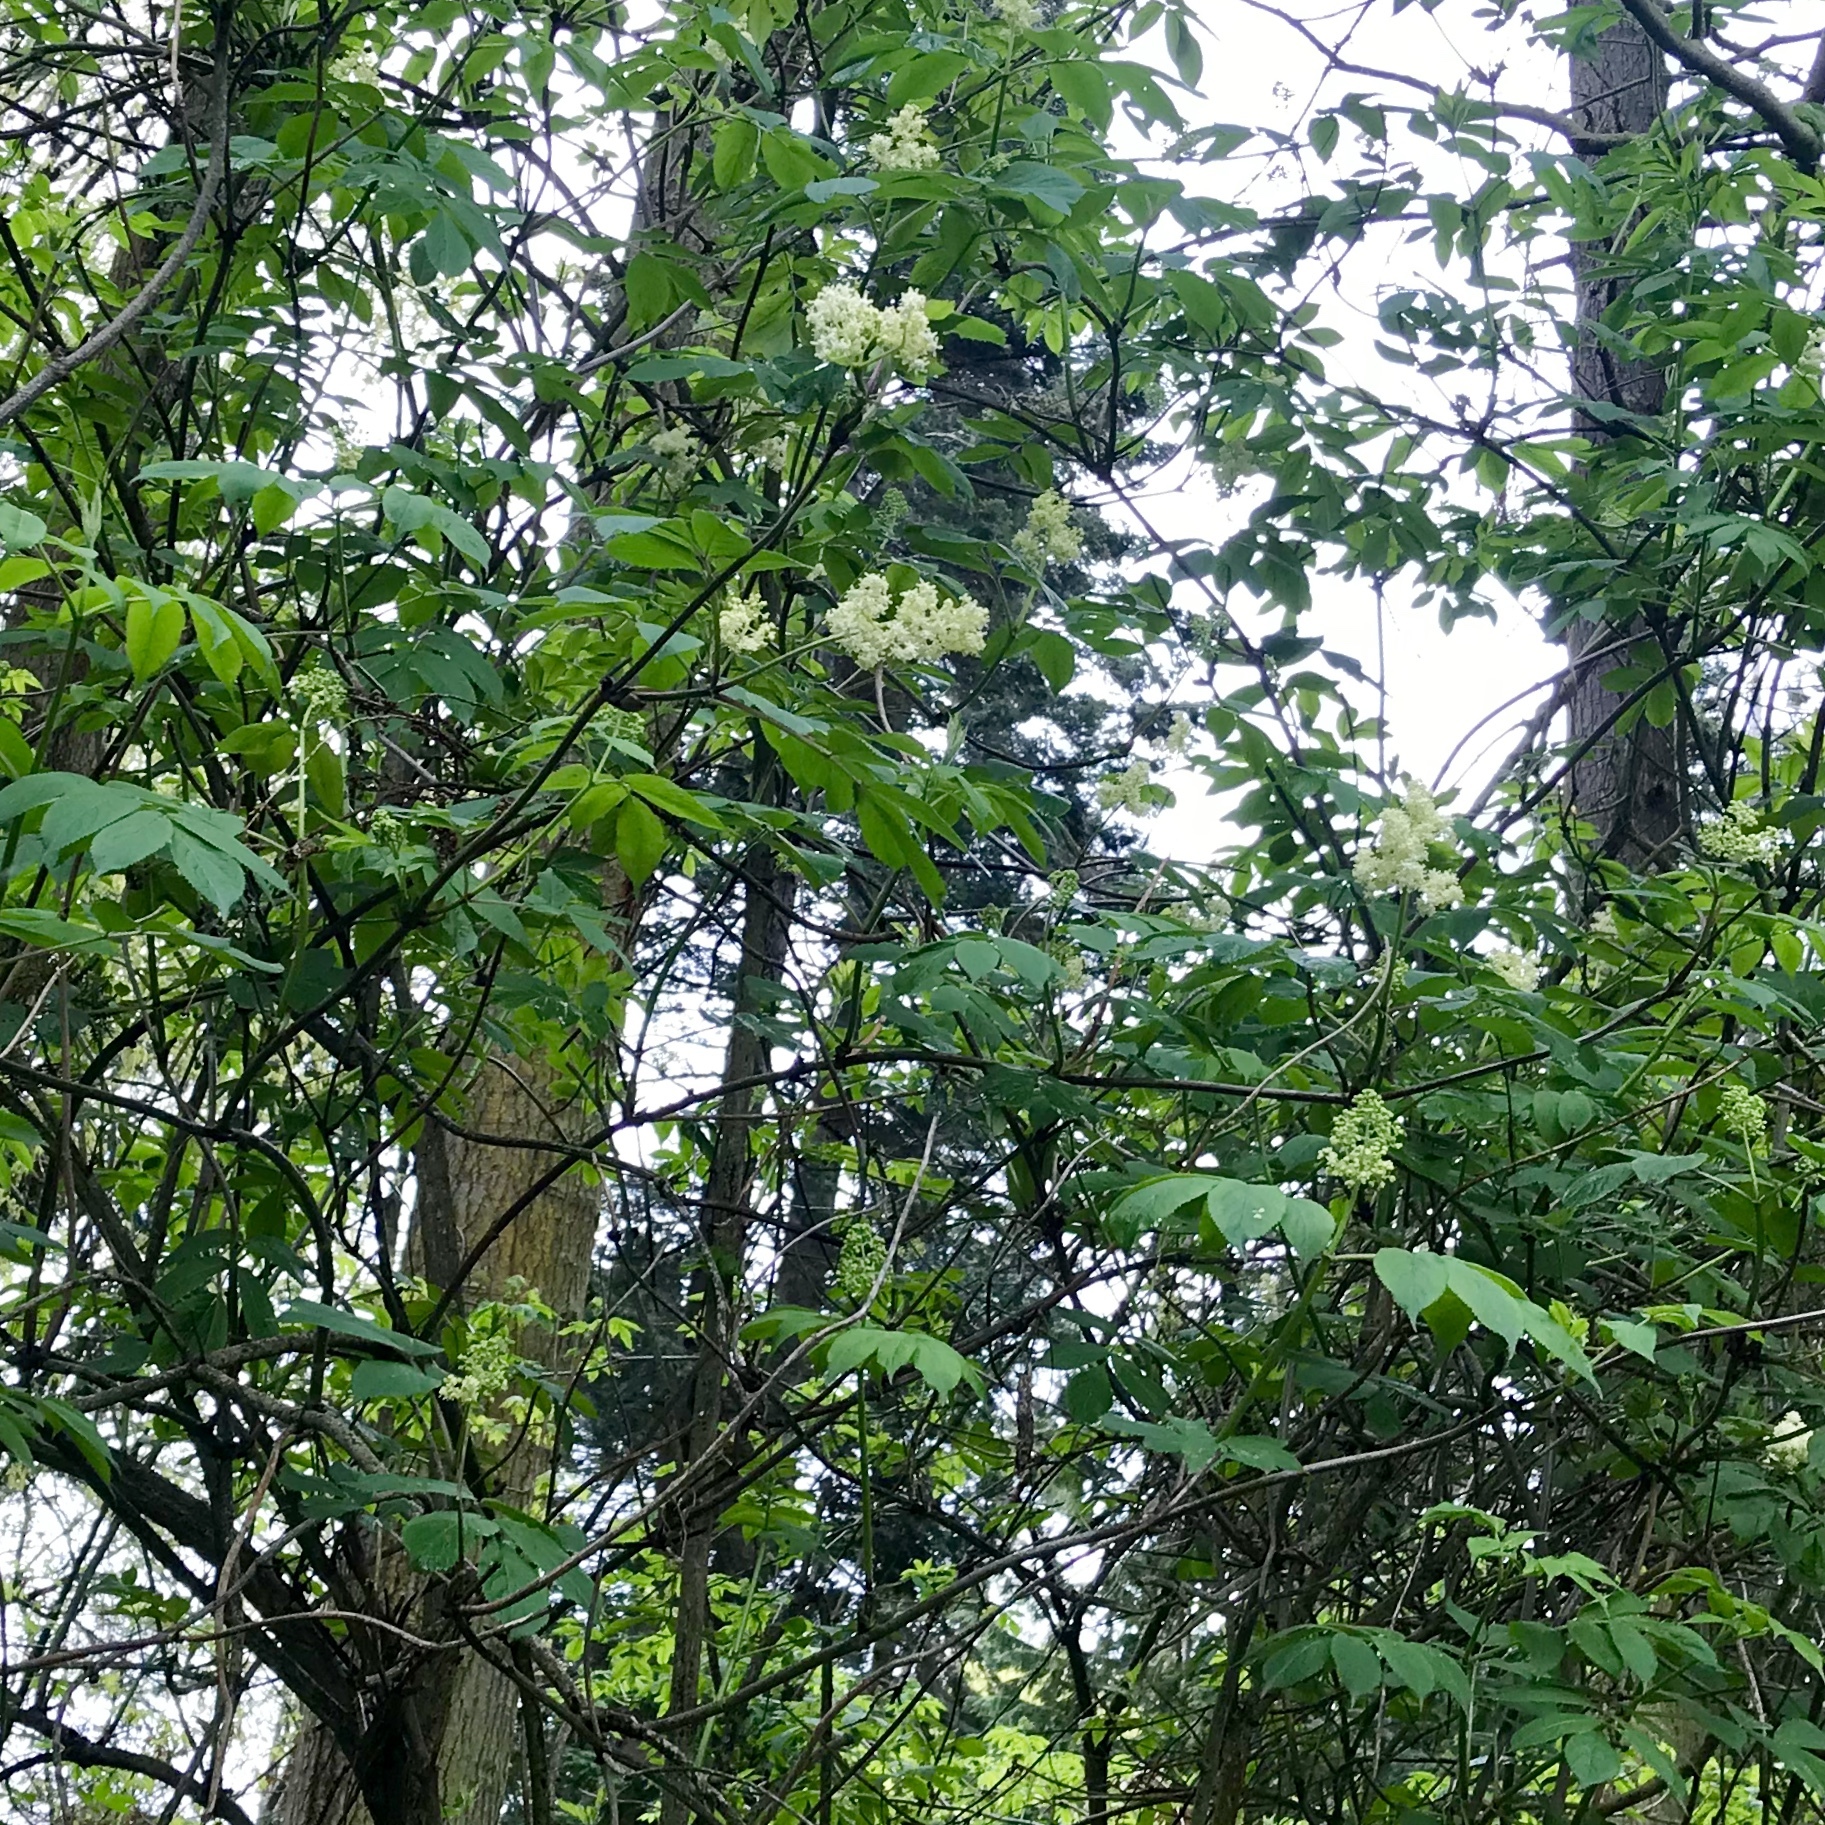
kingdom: Plantae
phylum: Tracheophyta
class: Magnoliopsida
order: Dipsacales
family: Viburnaceae
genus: Sambucus
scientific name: Sambucus racemosa
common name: Red-berried elder
